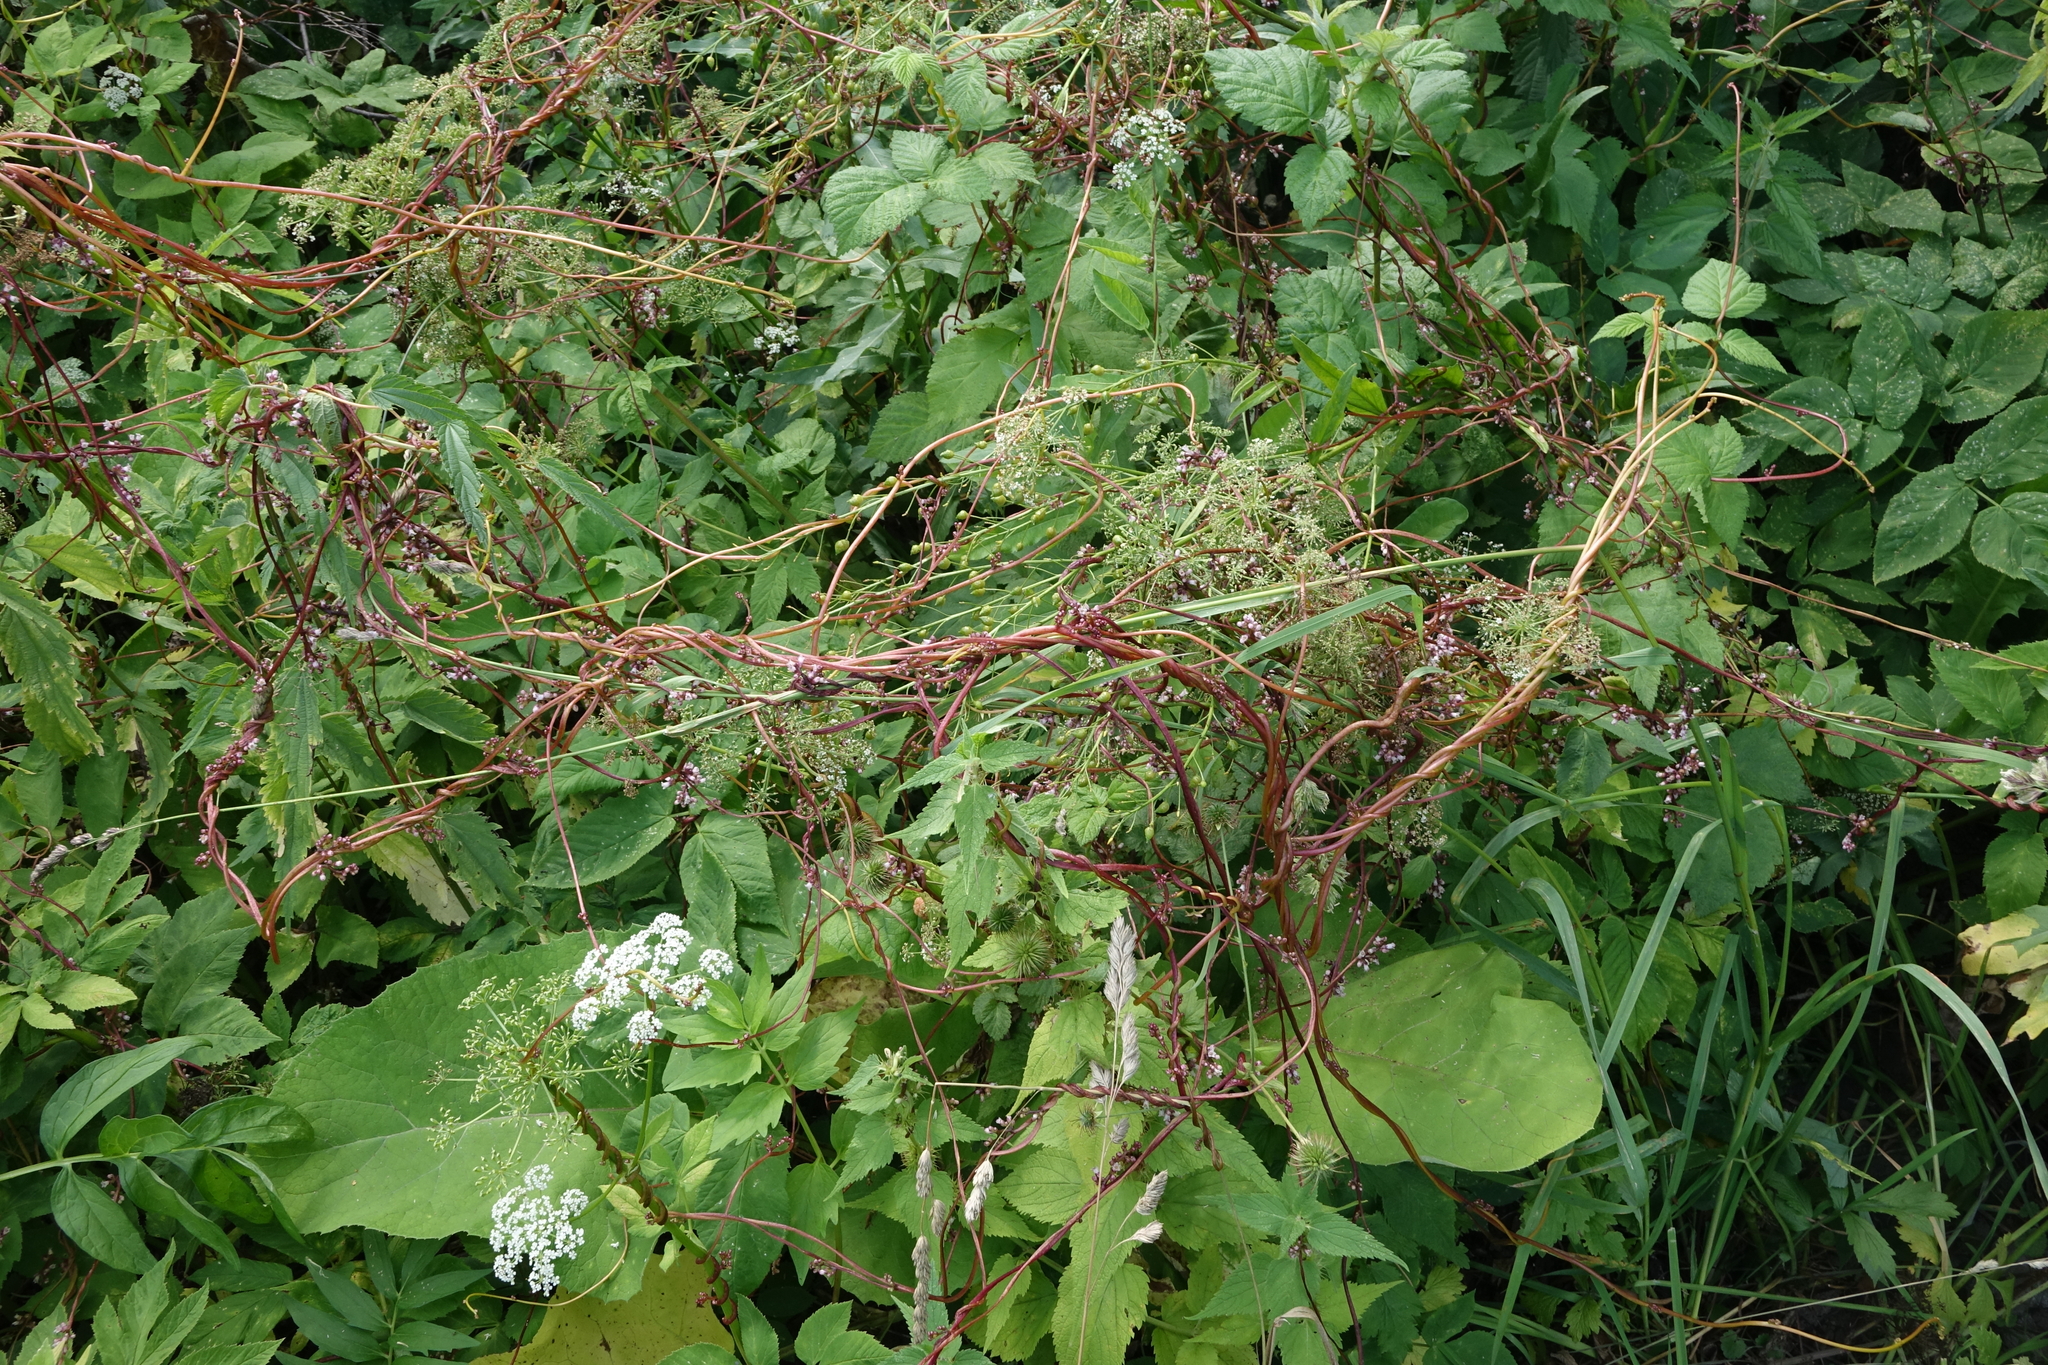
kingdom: Plantae
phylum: Tracheophyta
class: Magnoliopsida
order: Solanales
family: Convolvulaceae
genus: Cuscuta
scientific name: Cuscuta europaea
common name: Greater dodder
